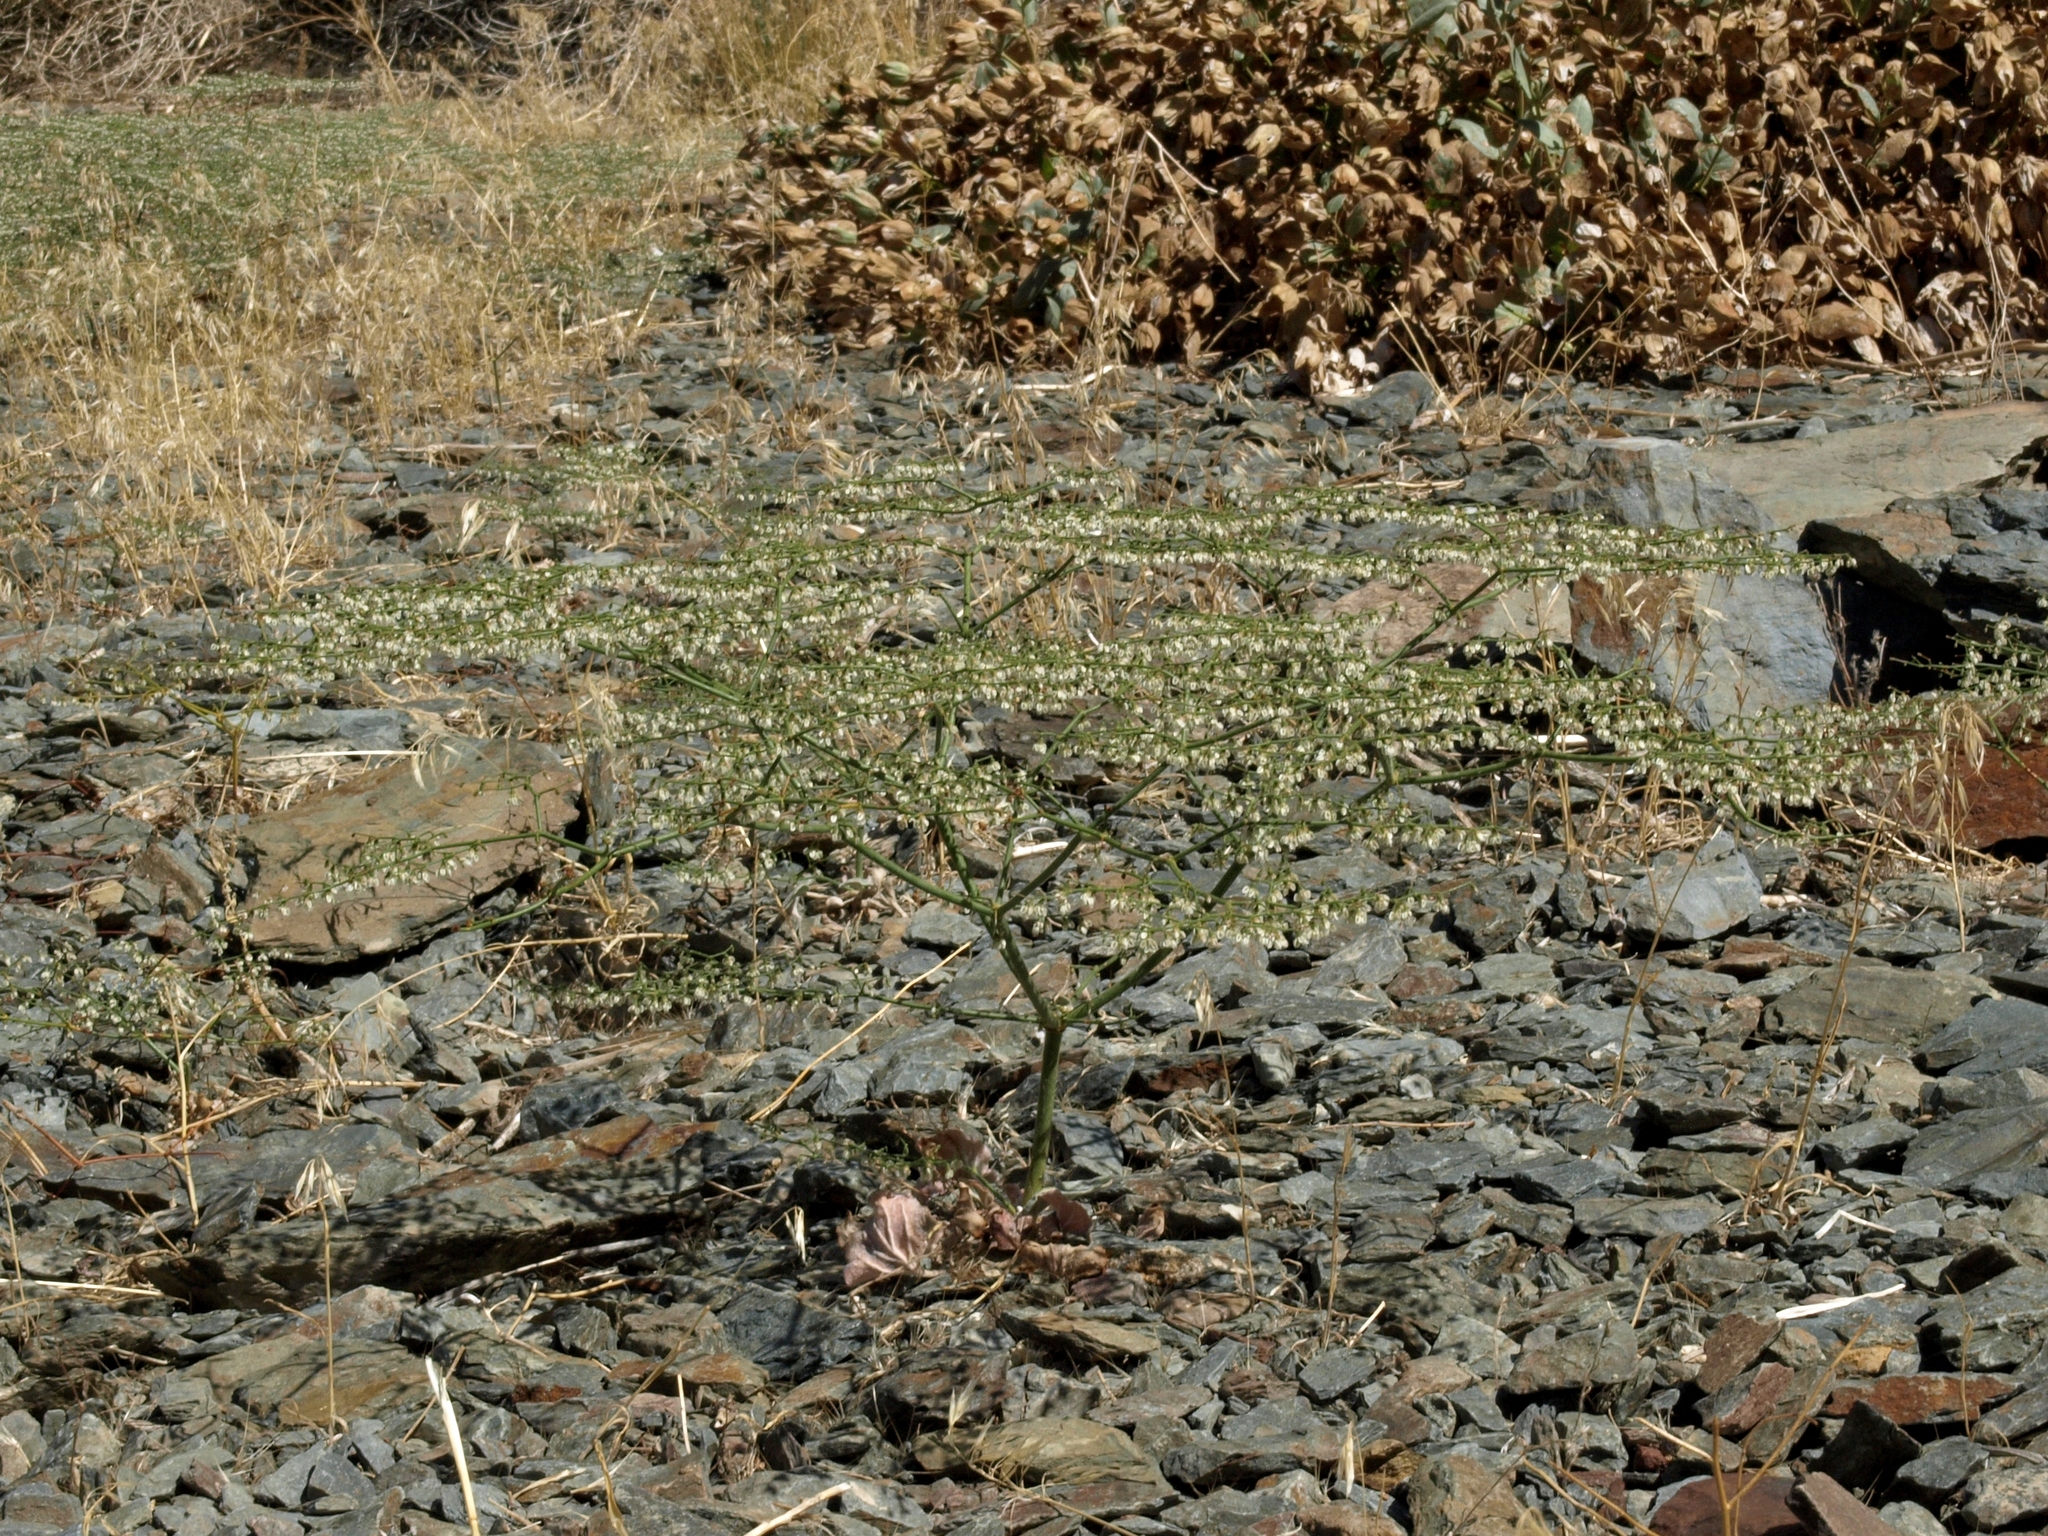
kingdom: Plantae
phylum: Tracheophyta
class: Magnoliopsida
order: Caryophyllales
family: Polygonaceae
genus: Eriogonum
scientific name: Eriogonum brachypodum
